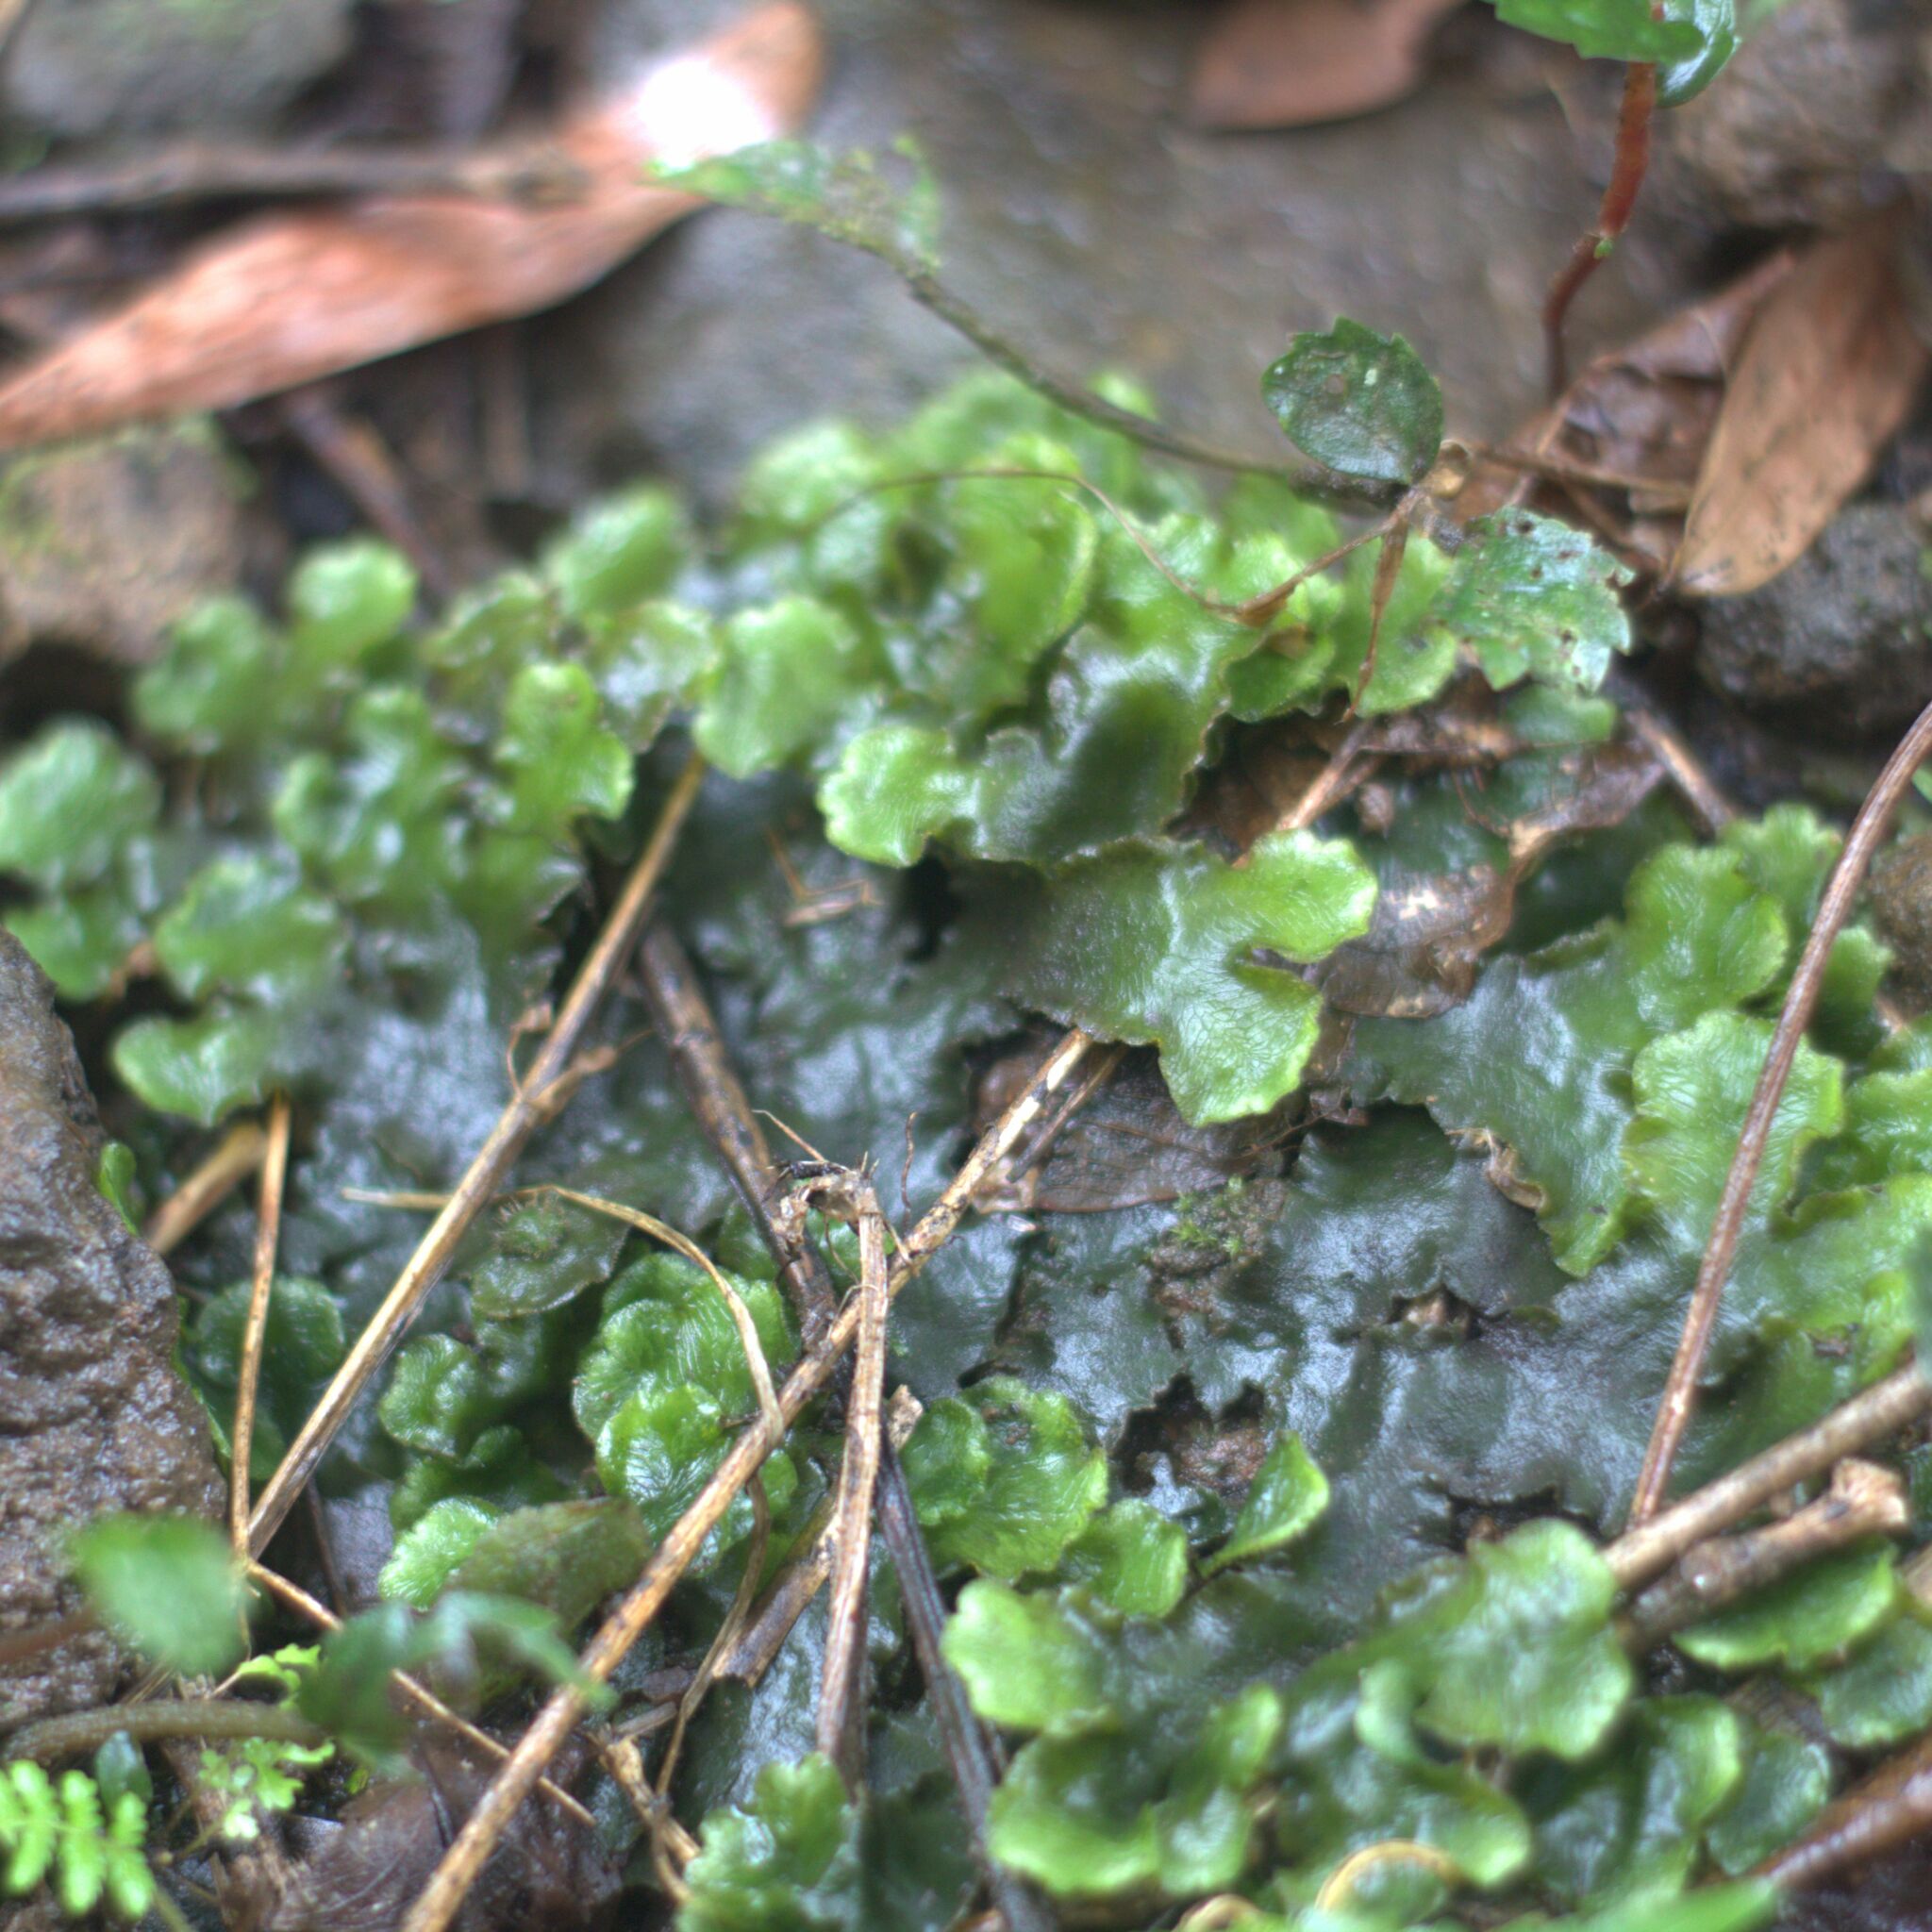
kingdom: Plantae
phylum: Marchantiophyta
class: Marchantiopsida
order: Marchantiales
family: Dumortieraceae
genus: Dumortiera
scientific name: Dumortiera hirsuta
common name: Dumortier's liverwort
